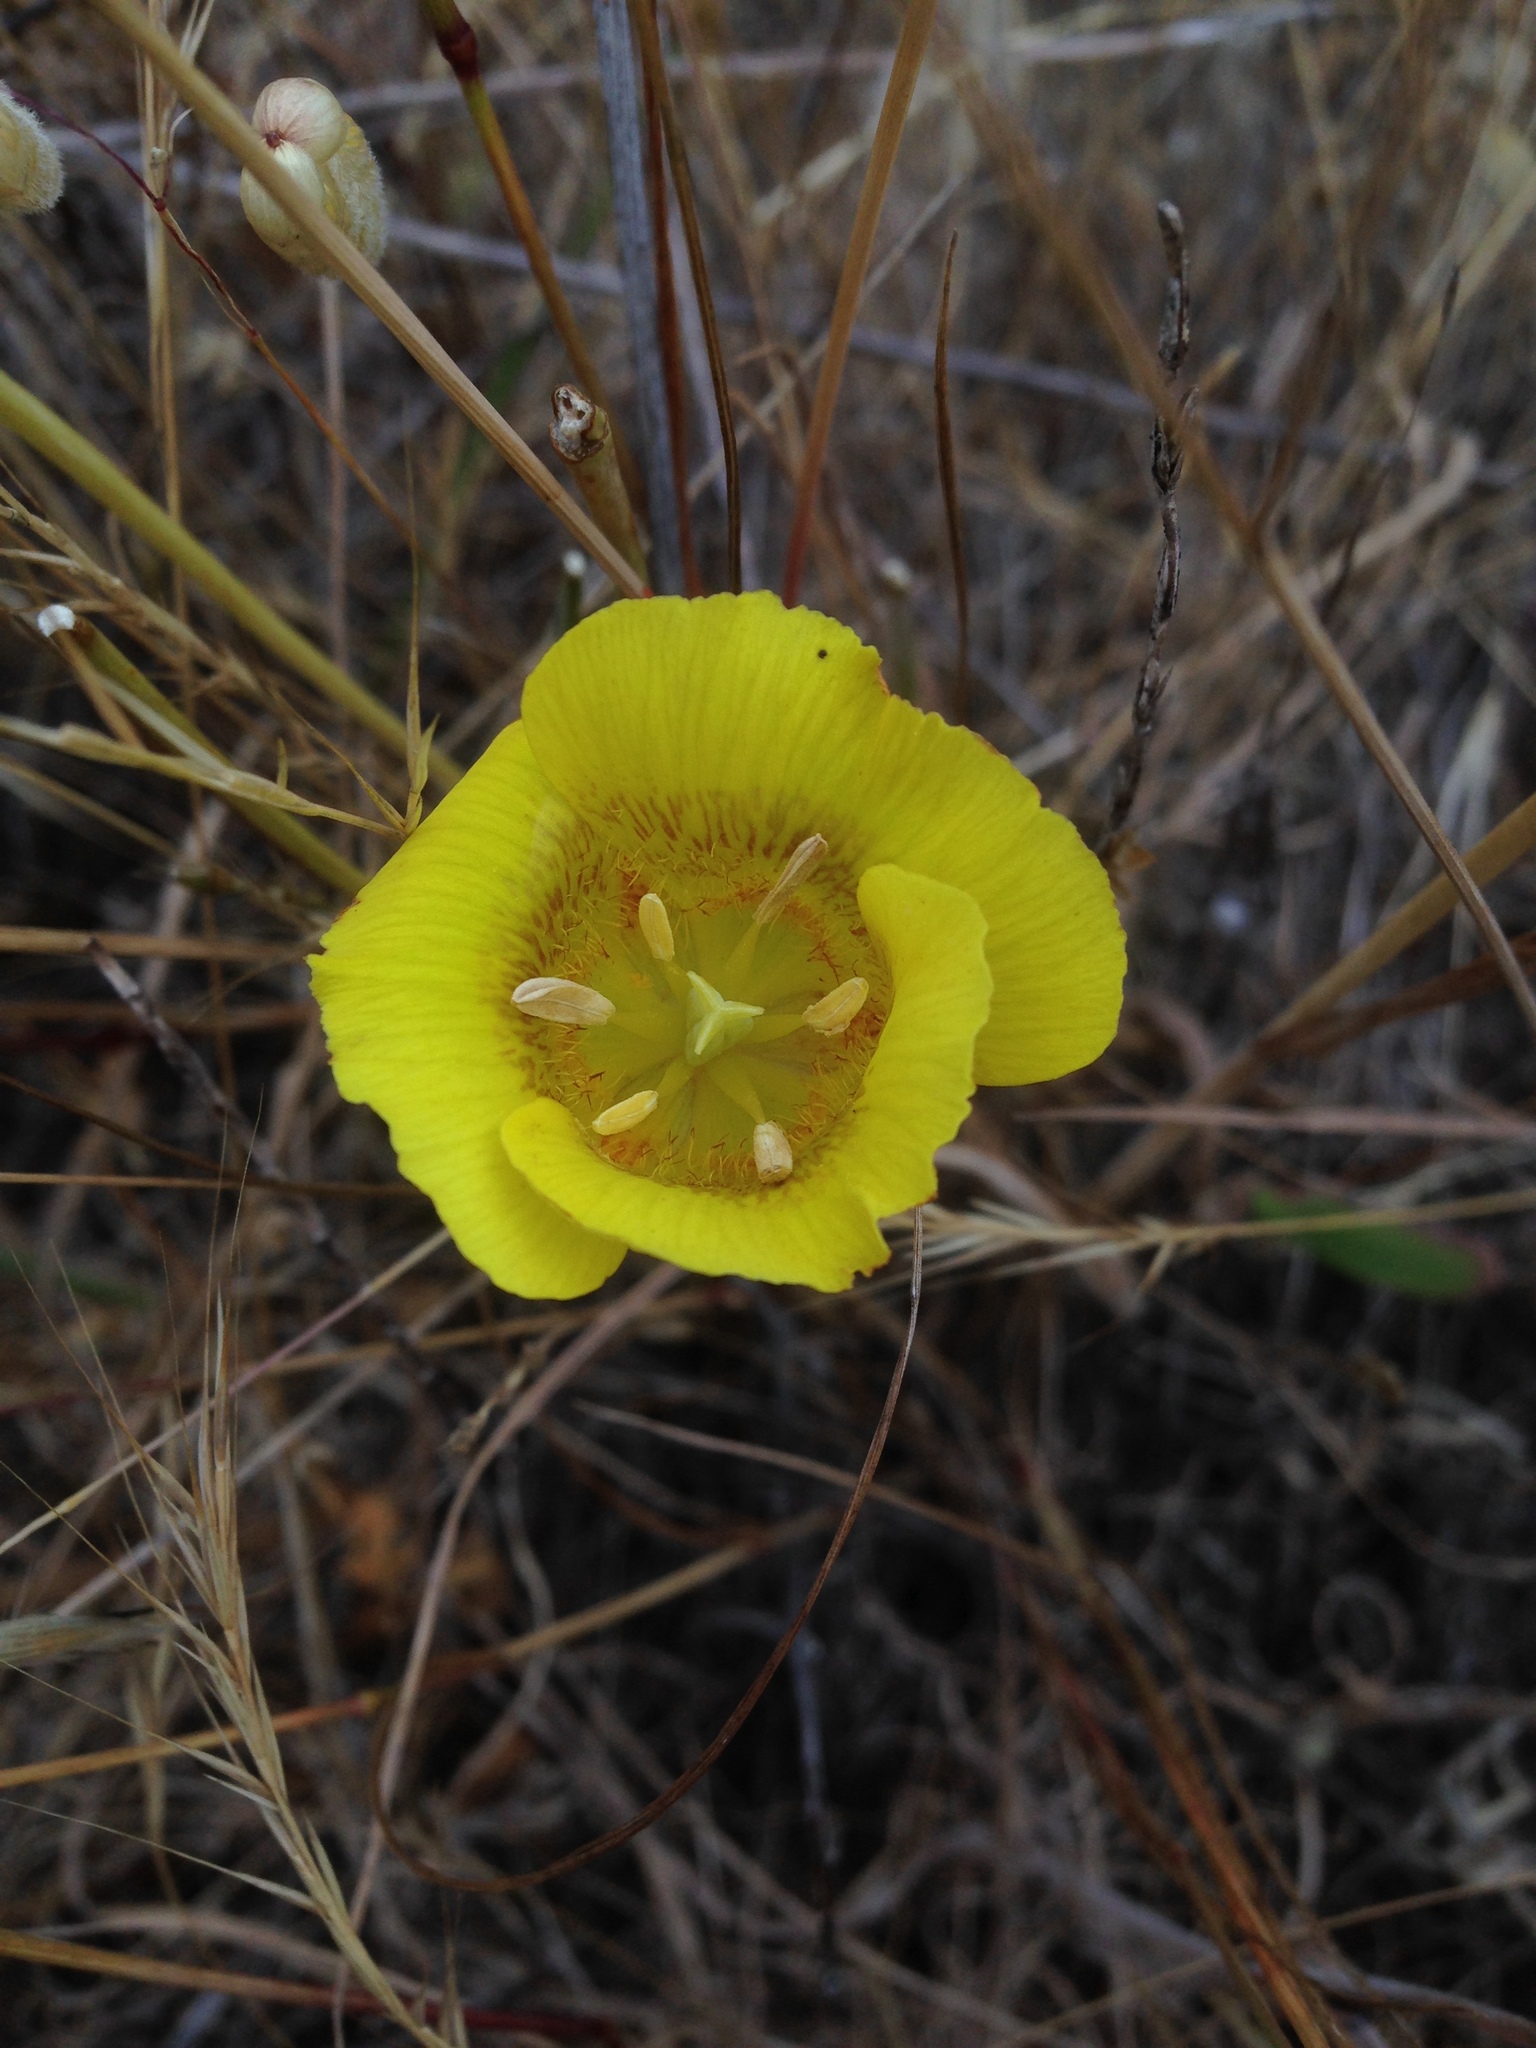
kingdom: Plantae
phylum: Tracheophyta
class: Liliopsida
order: Liliales
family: Liliaceae
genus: Calochortus
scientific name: Calochortus luteus
